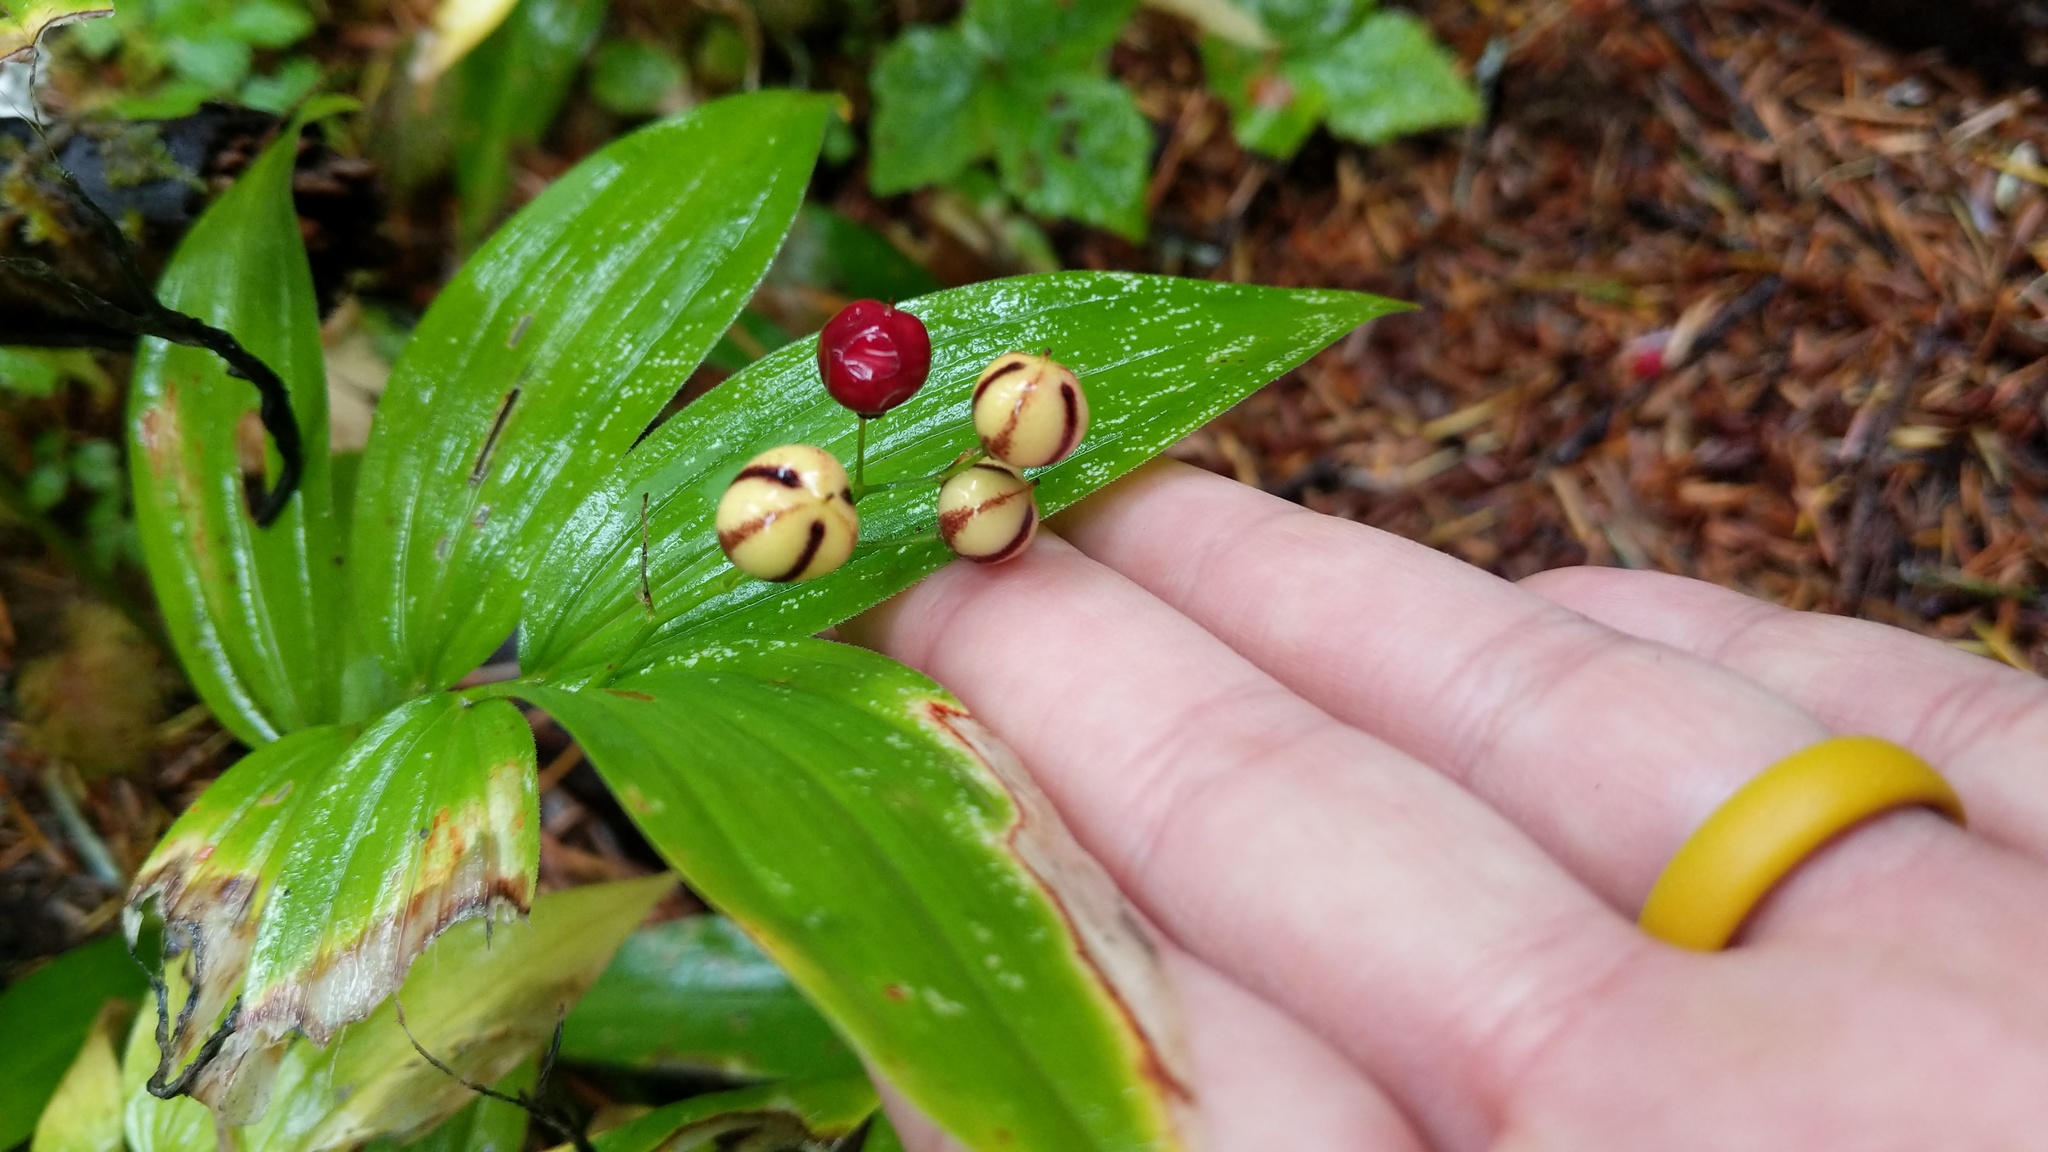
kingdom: Plantae
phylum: Tracheophyta
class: Liliopsida
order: Asparagales
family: Asparagaceae
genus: Maianthemum
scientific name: Maianthemum stellatum
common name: Little false solomon's seal
